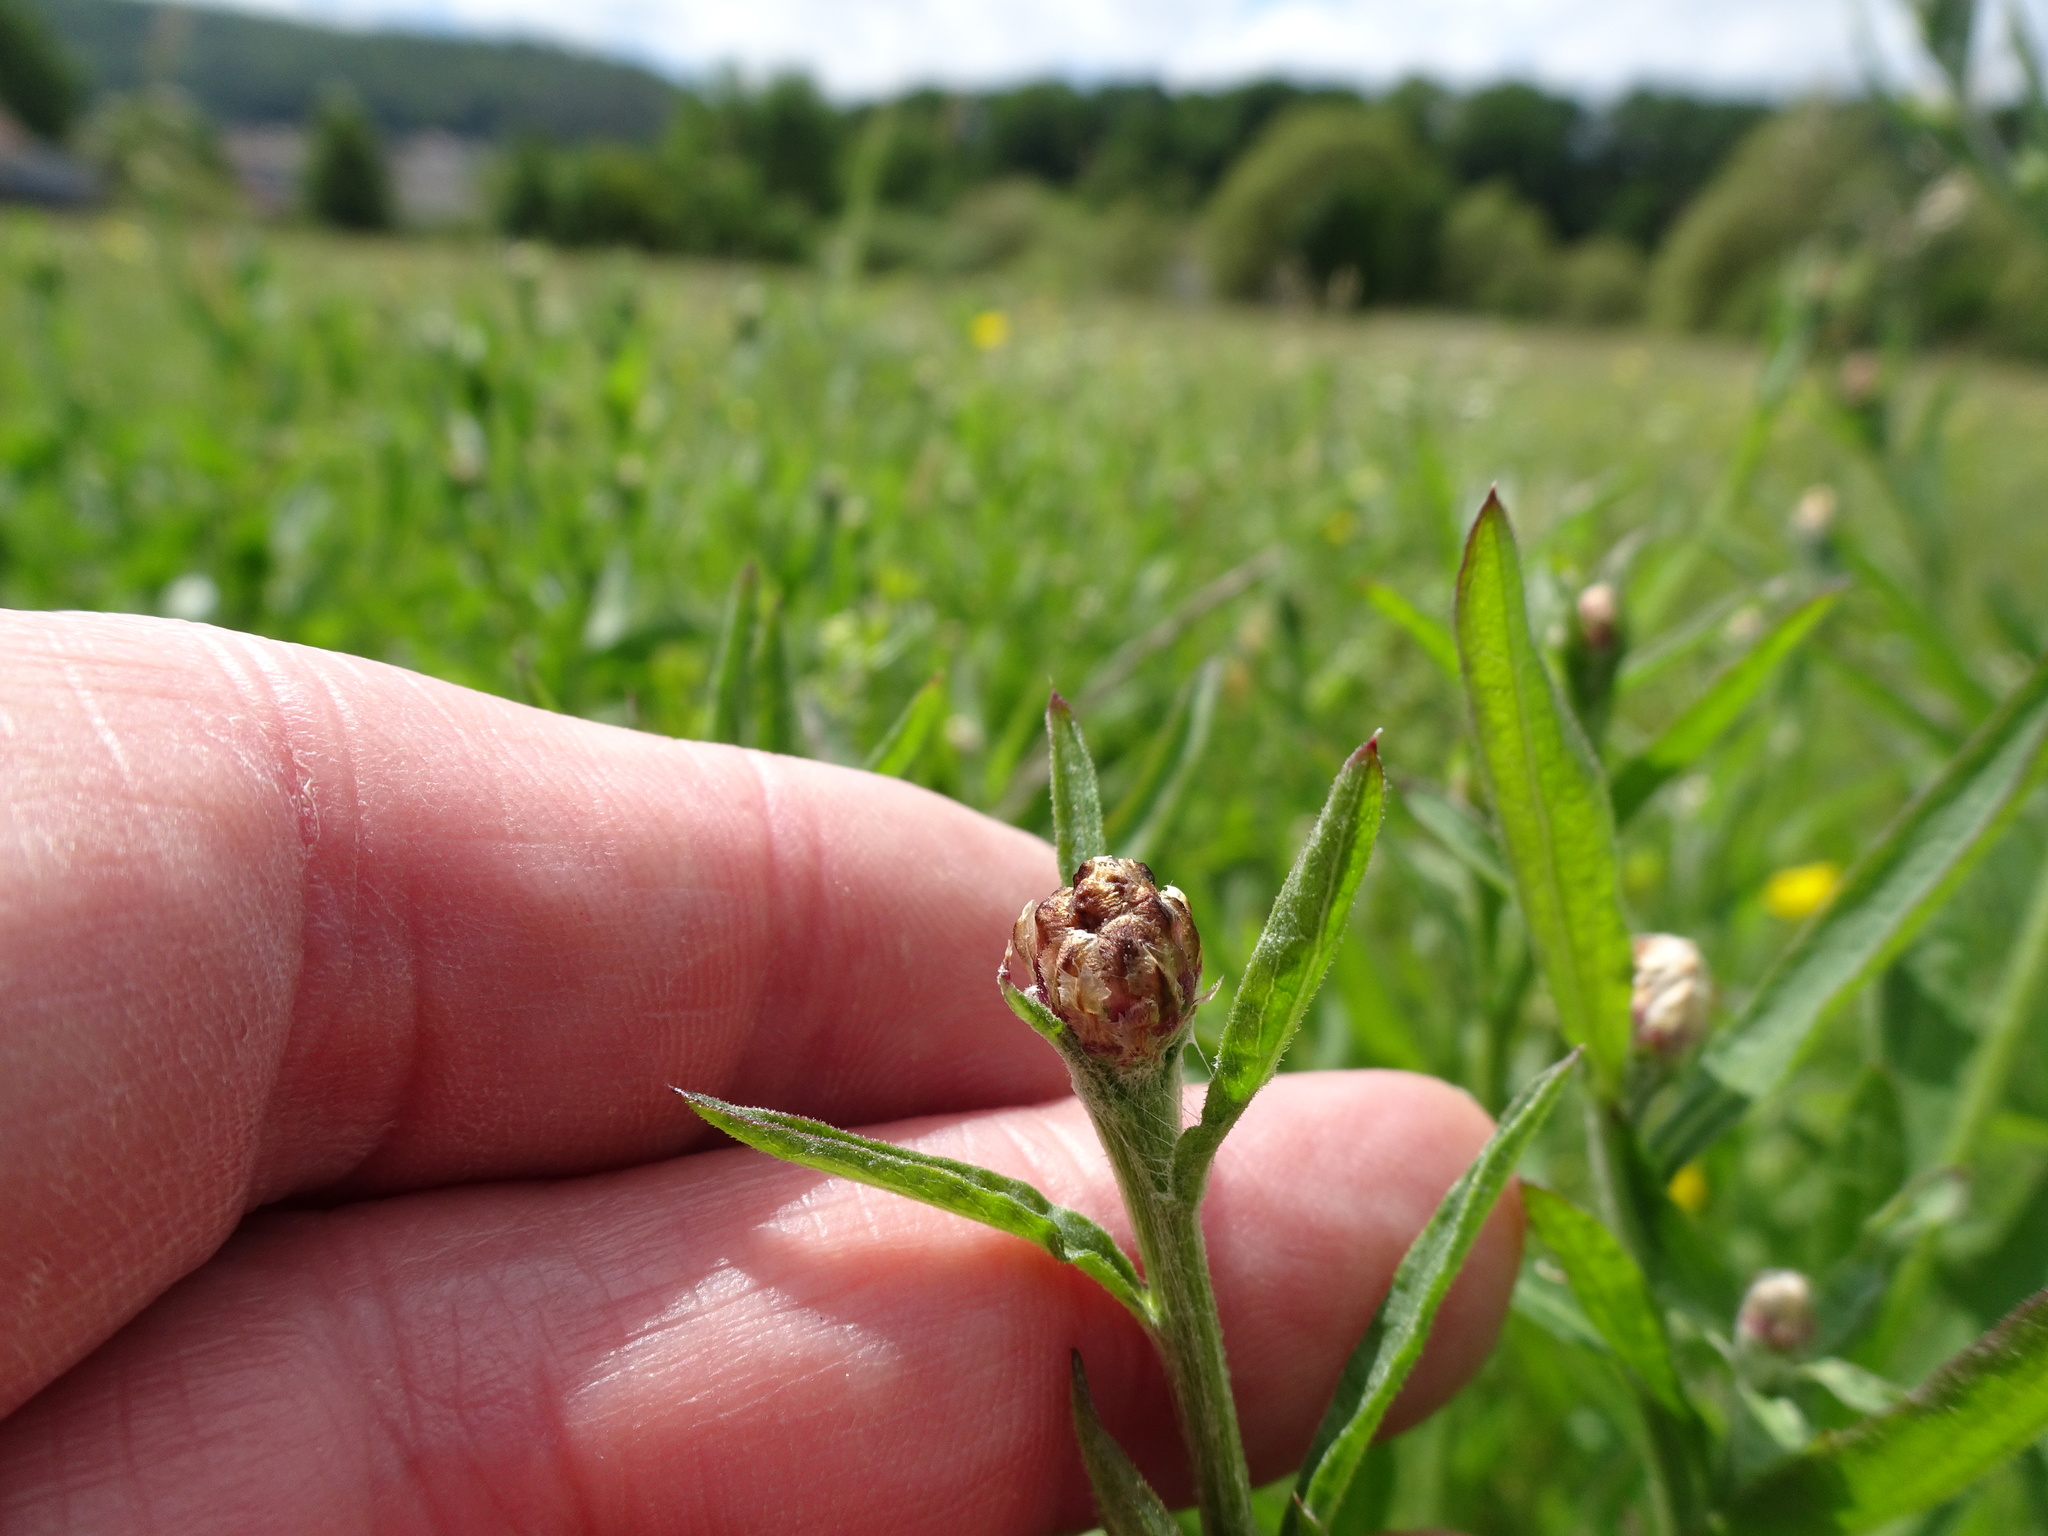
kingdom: Plantae
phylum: Tracheophyta
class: Magnoliopsida
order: Asterales
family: Asteraceae
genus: Centaurea
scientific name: Centaurea jacea
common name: Brown knapweed
